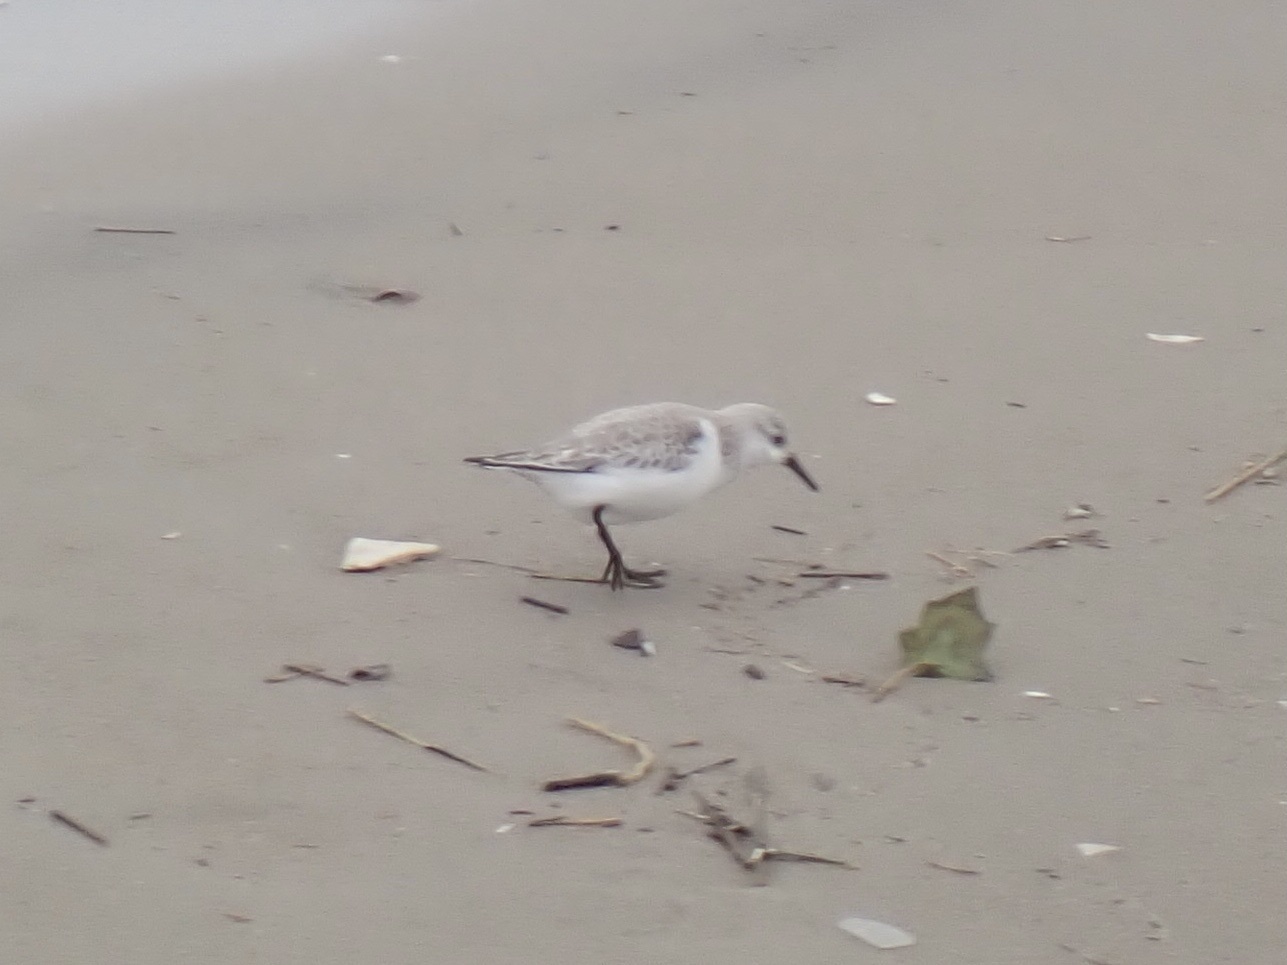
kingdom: Animalia
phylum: Chordata
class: Aves
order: Charadriiformes
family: Scolopacidae
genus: Calidris
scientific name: Calidris alba
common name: Sanderling
